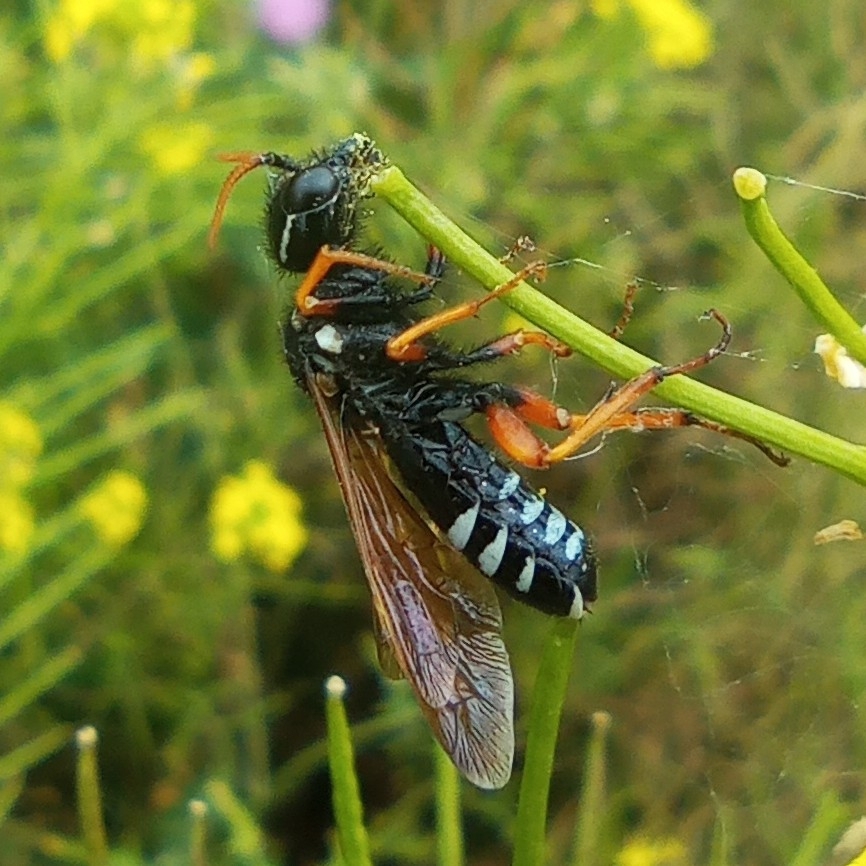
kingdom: Animalia
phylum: Arthropoda
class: Insecta
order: Hymenoptera
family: Megalodontesidae
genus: Megalodontes
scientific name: Megalodontes fabricii
